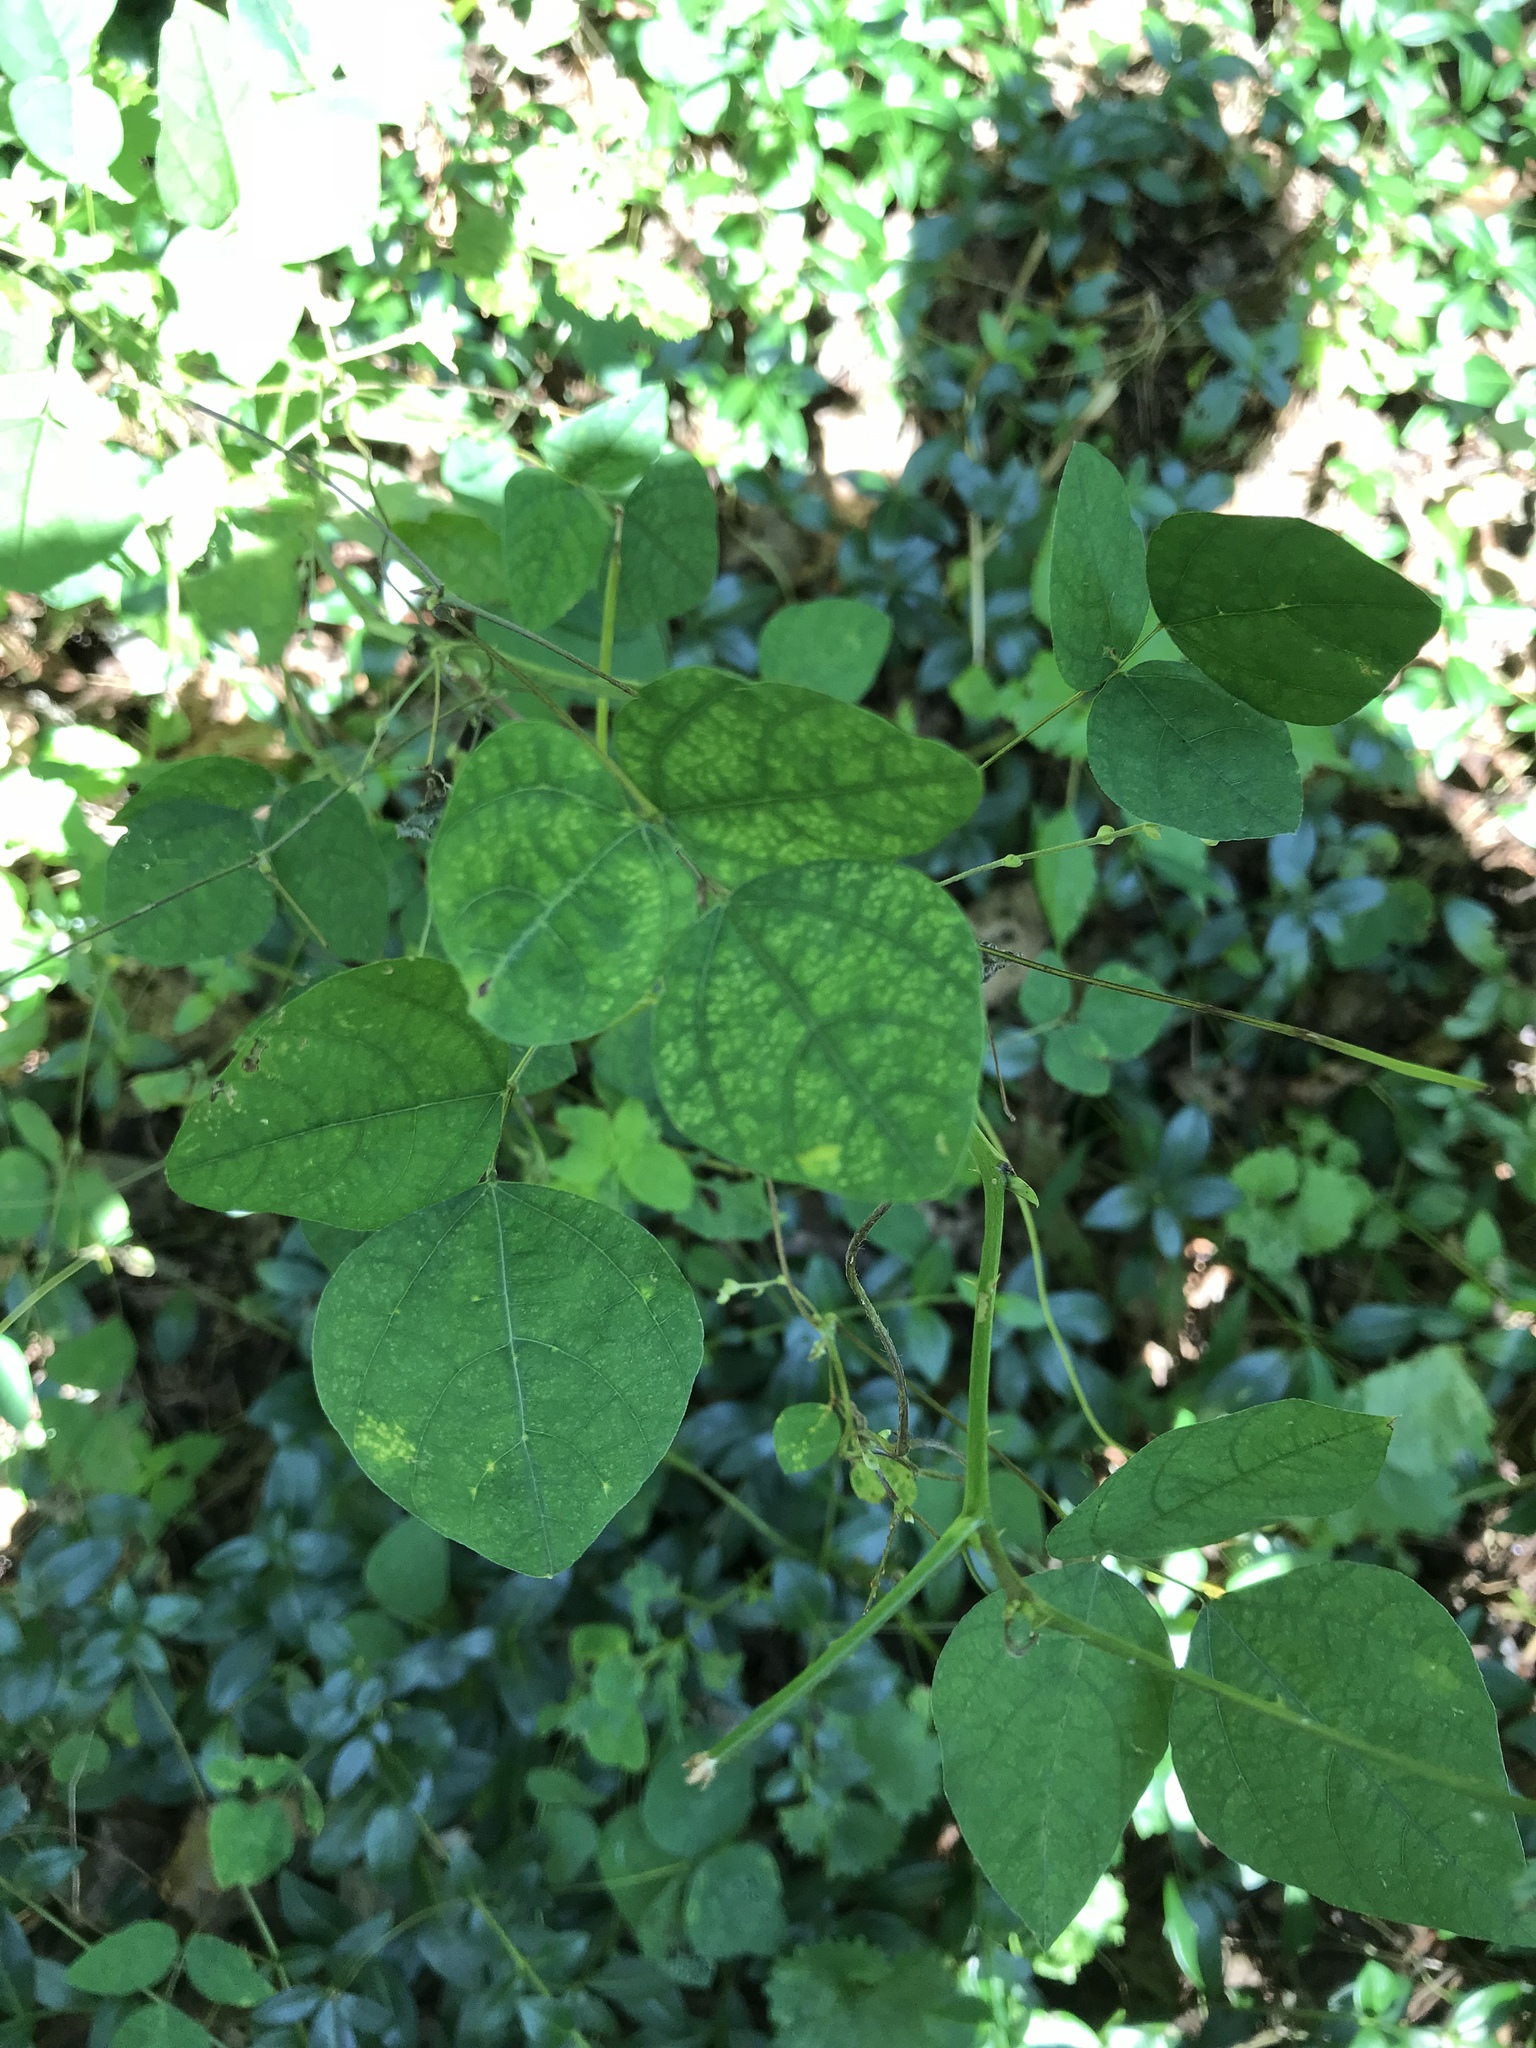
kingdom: Plantae
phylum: Tracheophyta
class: Magnoliopsida
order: Fabales
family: Fabaceae
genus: Amphicarpaea
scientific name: Amphicarpaea bracteata
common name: American hog peanut
